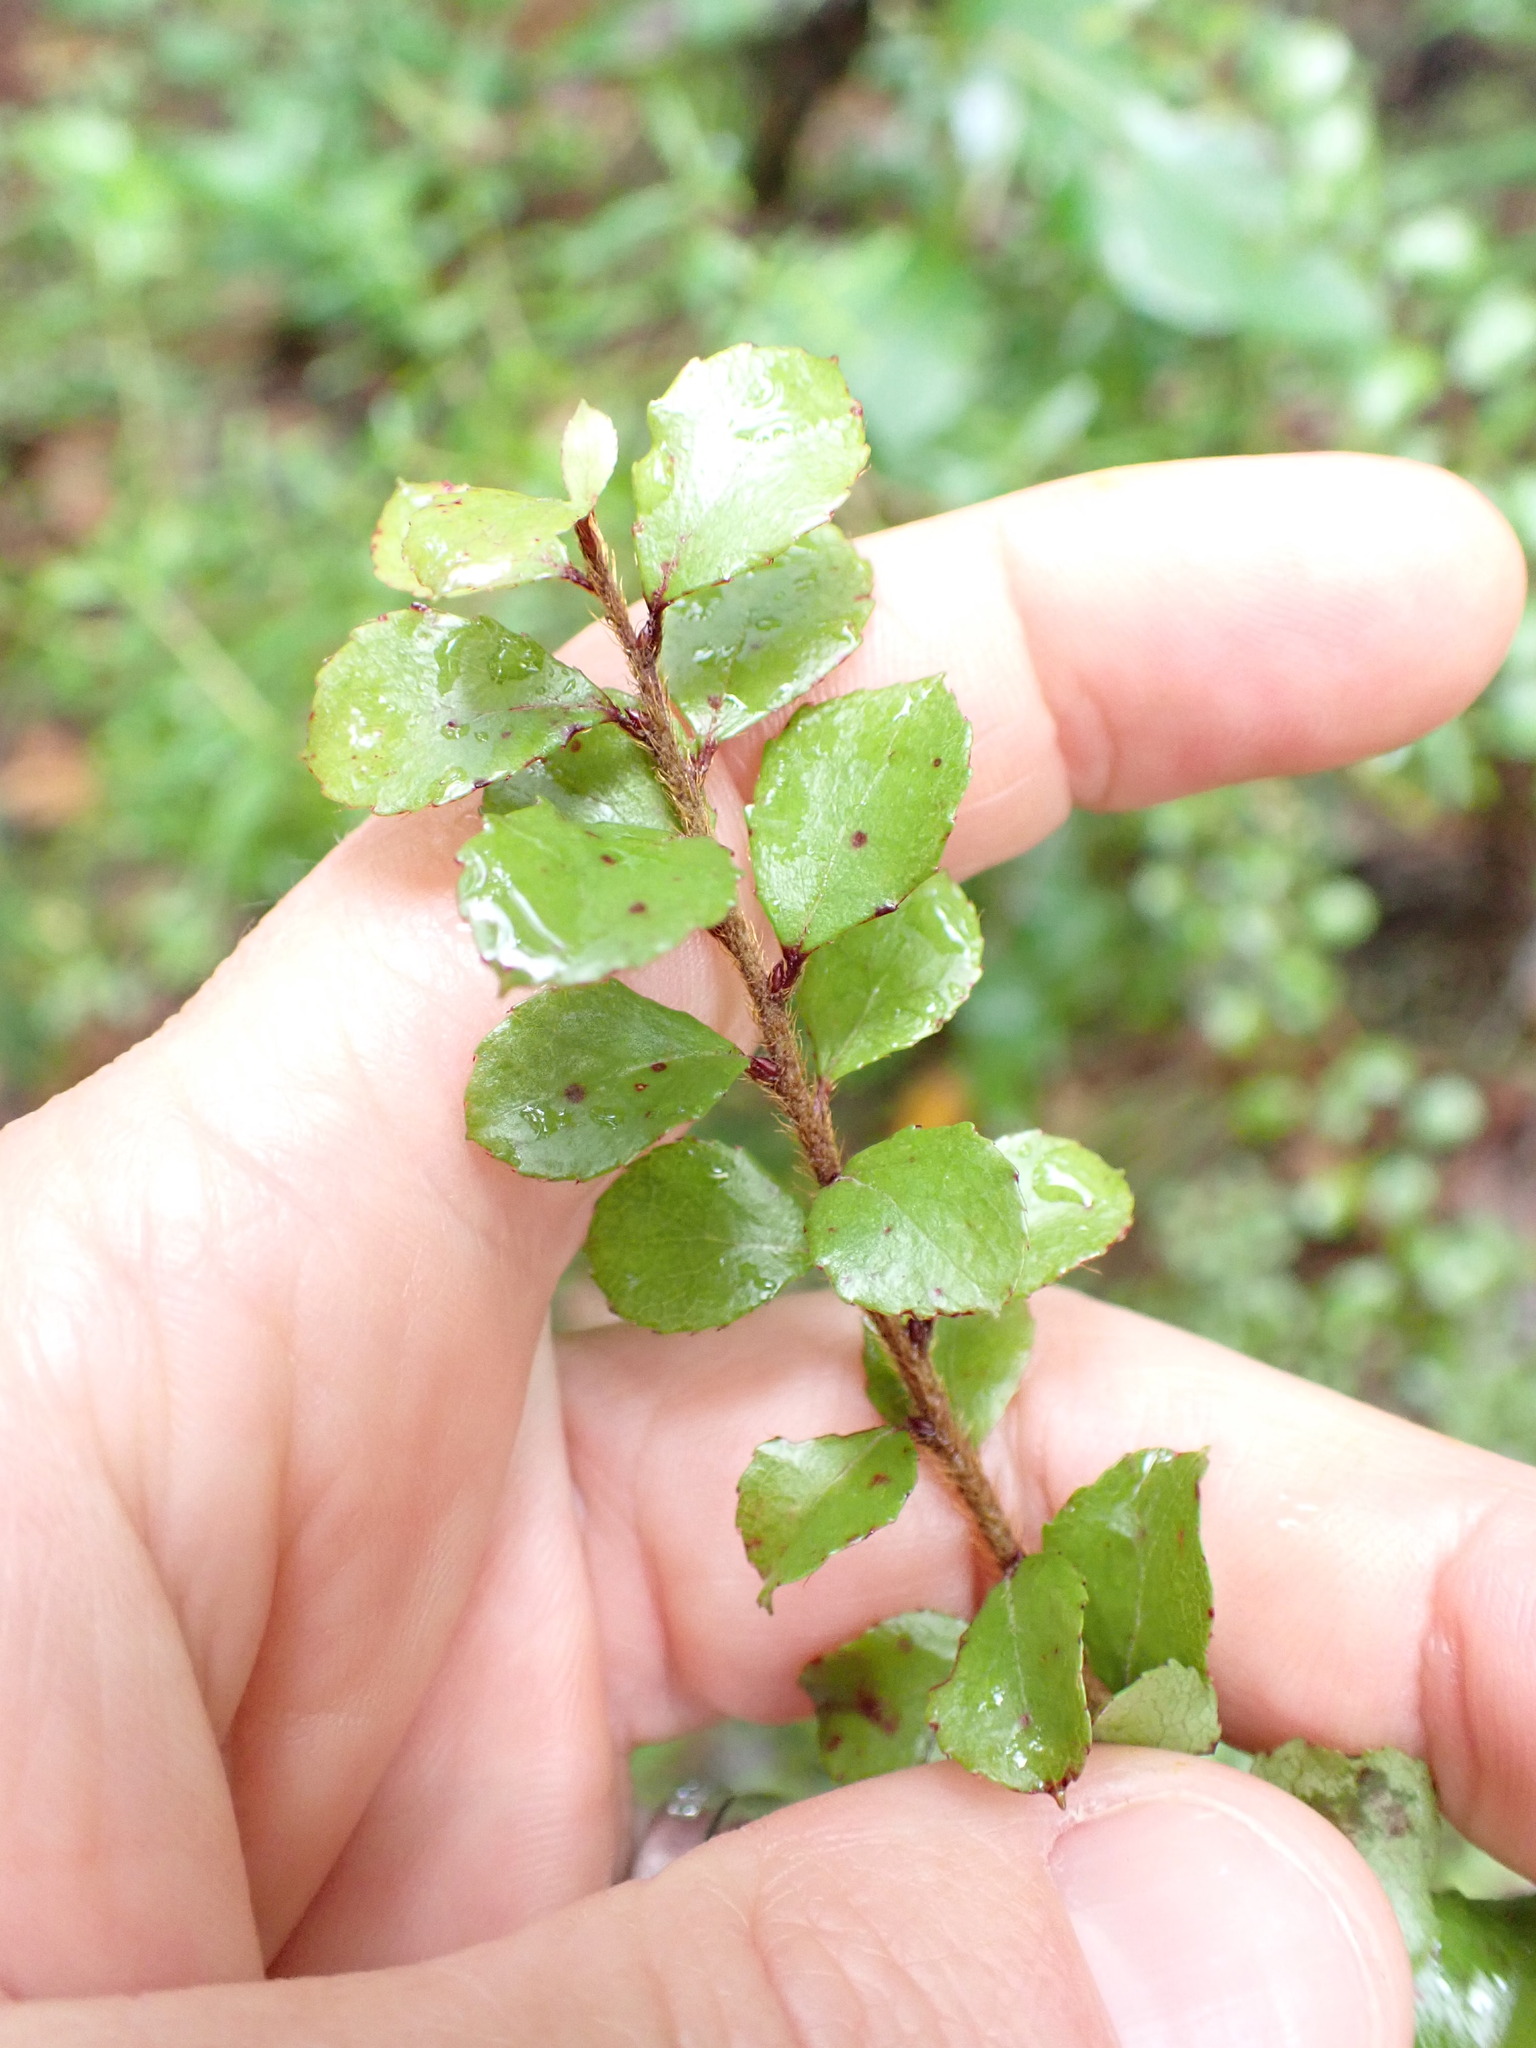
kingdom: Plantae
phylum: Tracheophyta
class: Magnoliopsida
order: Ericales
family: Ericaceae
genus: Gaultheria
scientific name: Gaultheria antipoda
